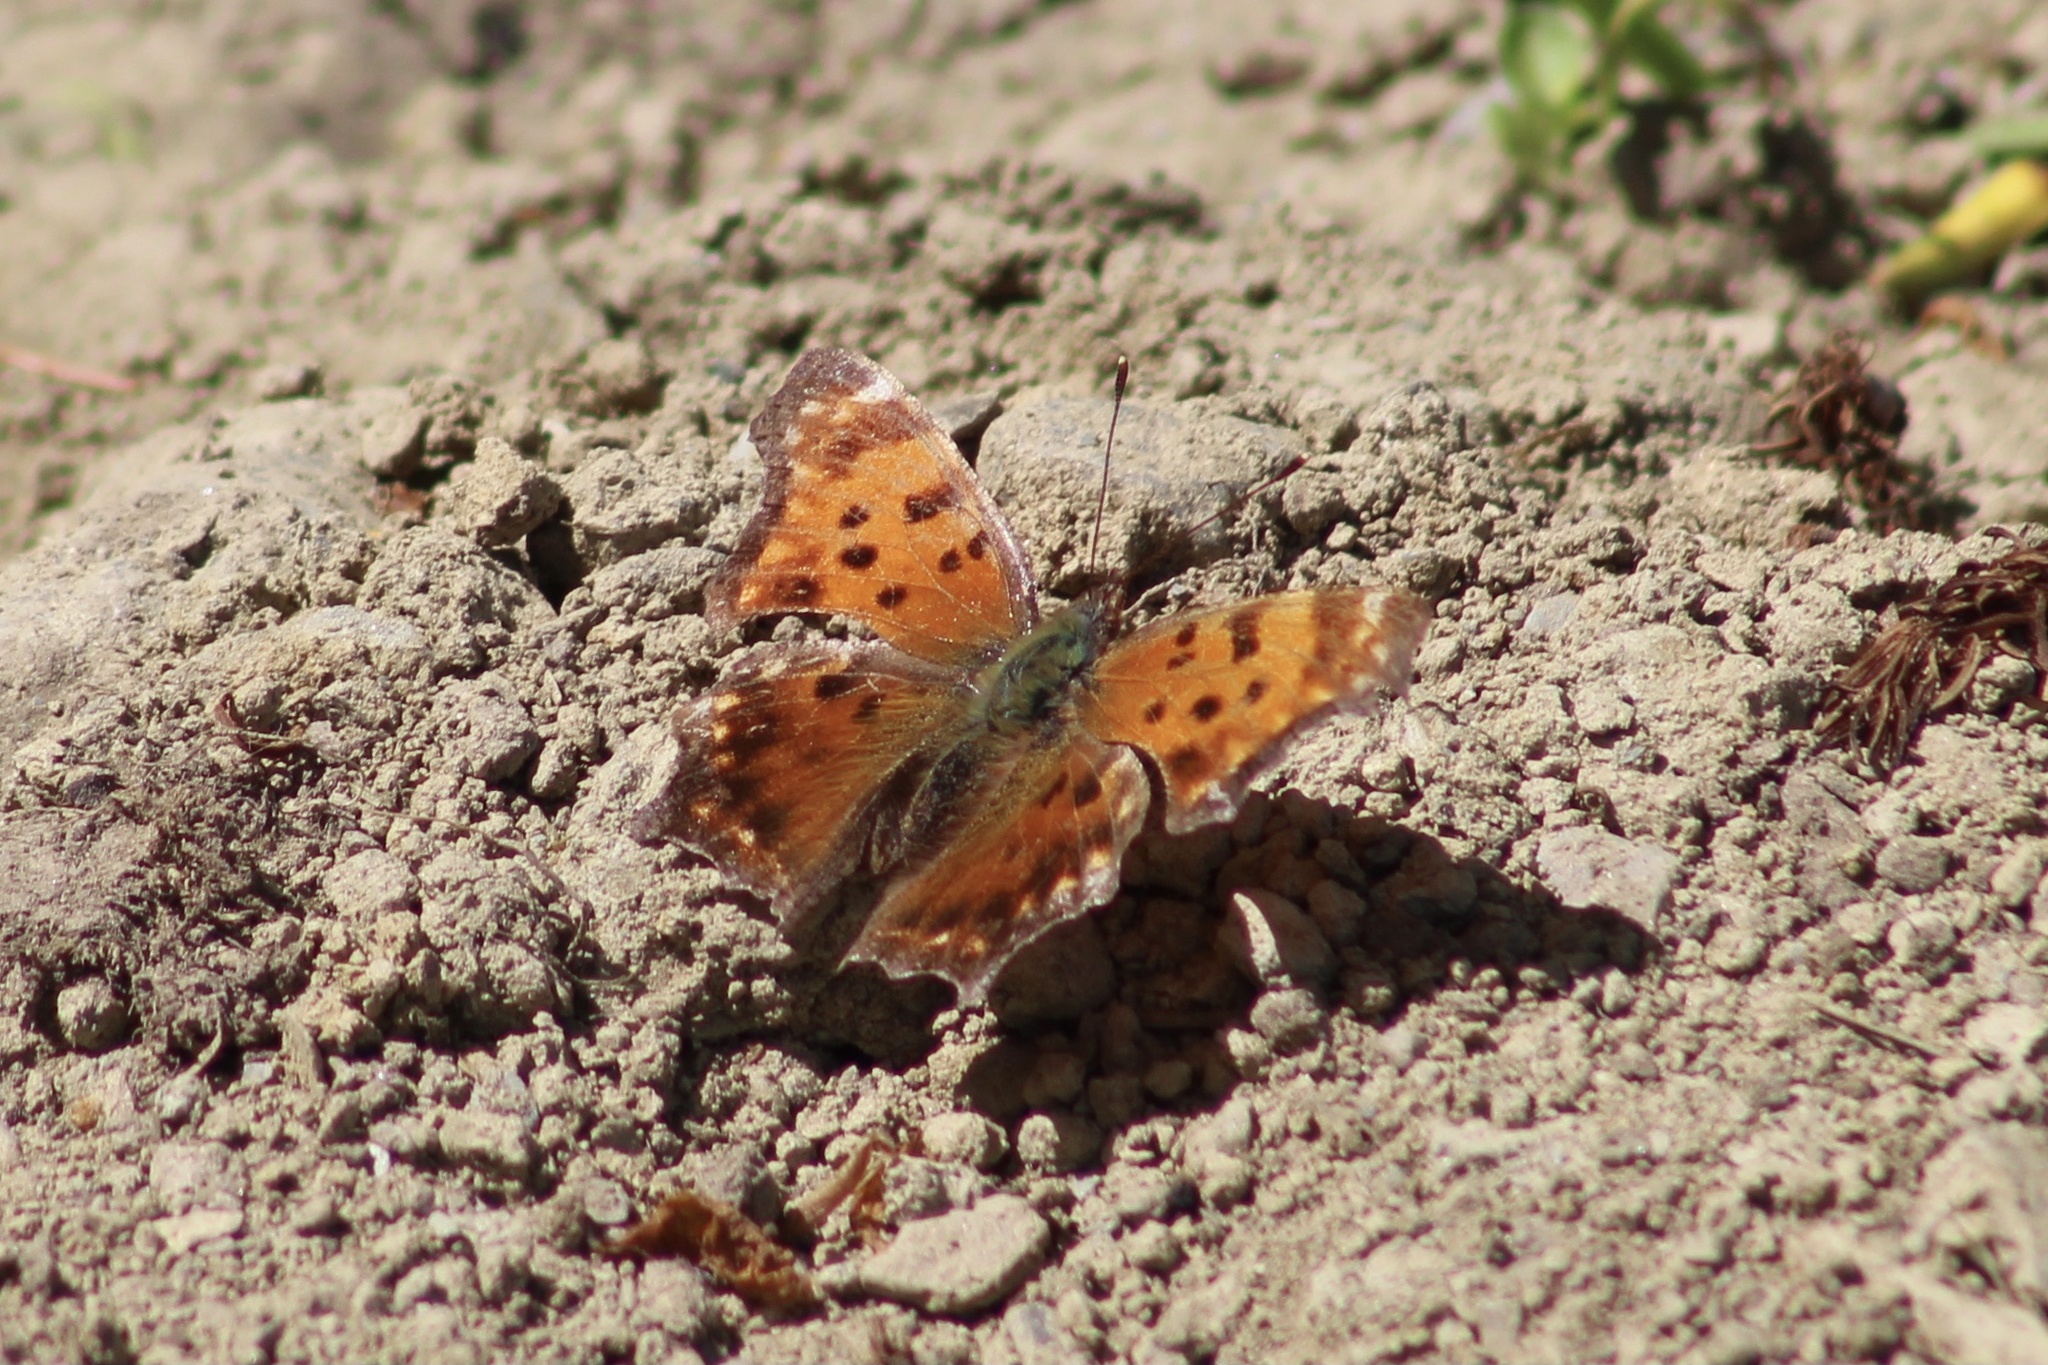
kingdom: Animalia
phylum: Arthropoda
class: Insecta
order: Lepidoptera
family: Nymphalidae
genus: Polygonia
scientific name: Polygonia comma
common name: Eastern comma
